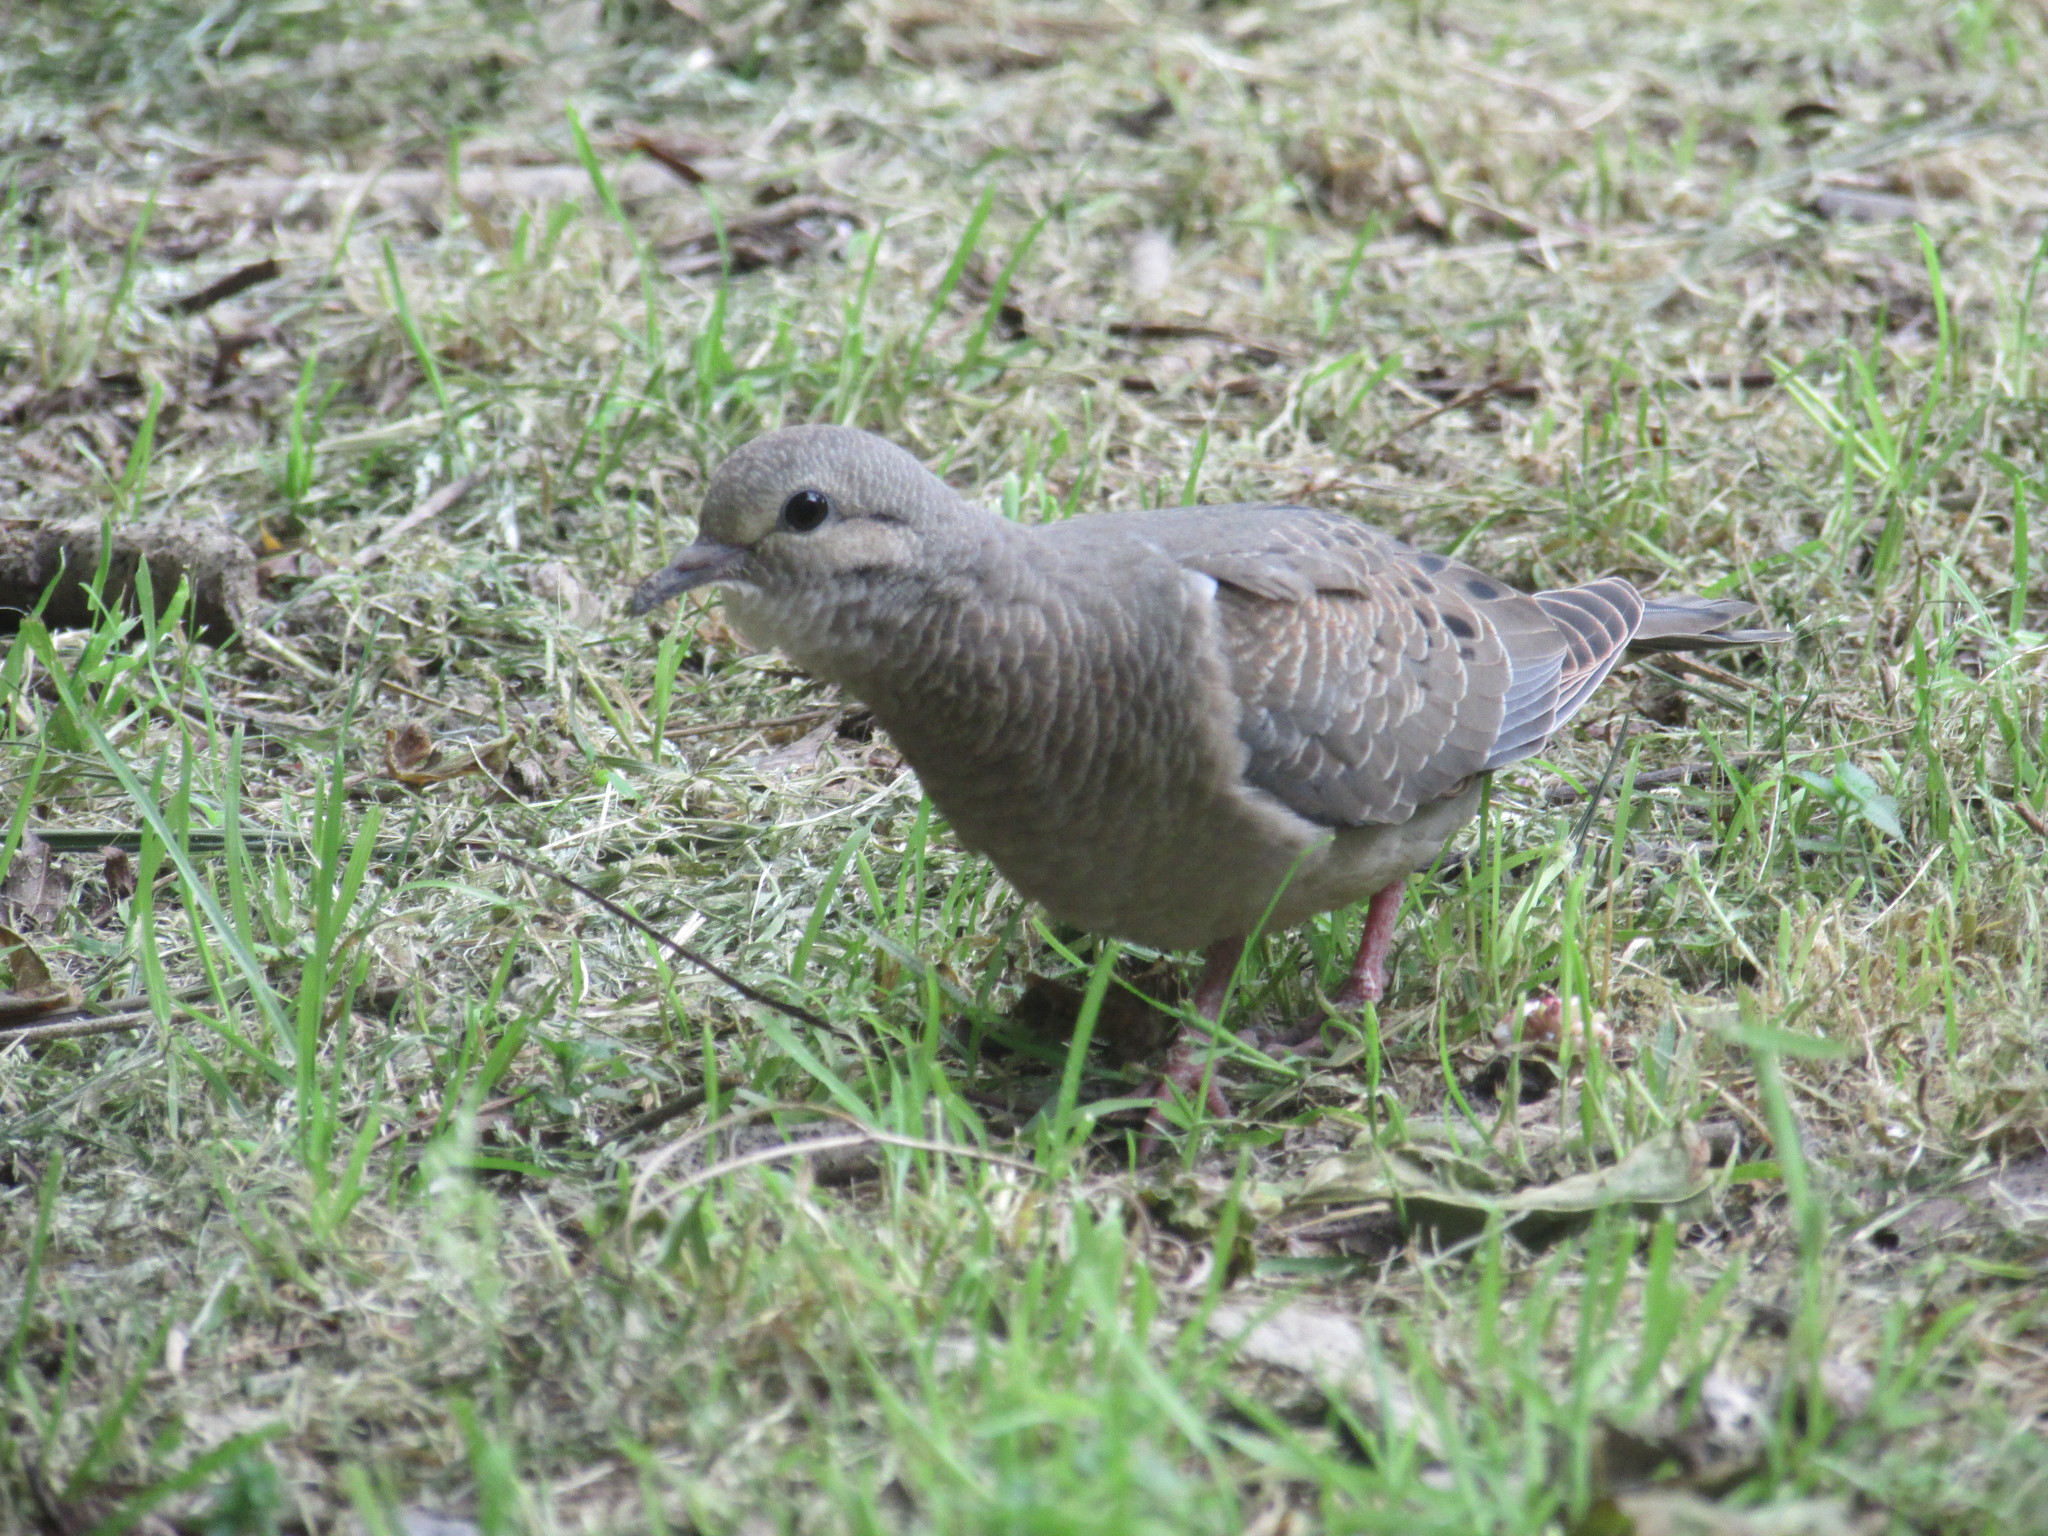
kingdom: Animalia
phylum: Chordata
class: Aves
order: Columbiformes
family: Columbidae
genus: Zenaida
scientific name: Zenaida auriculata
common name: Eared dove
